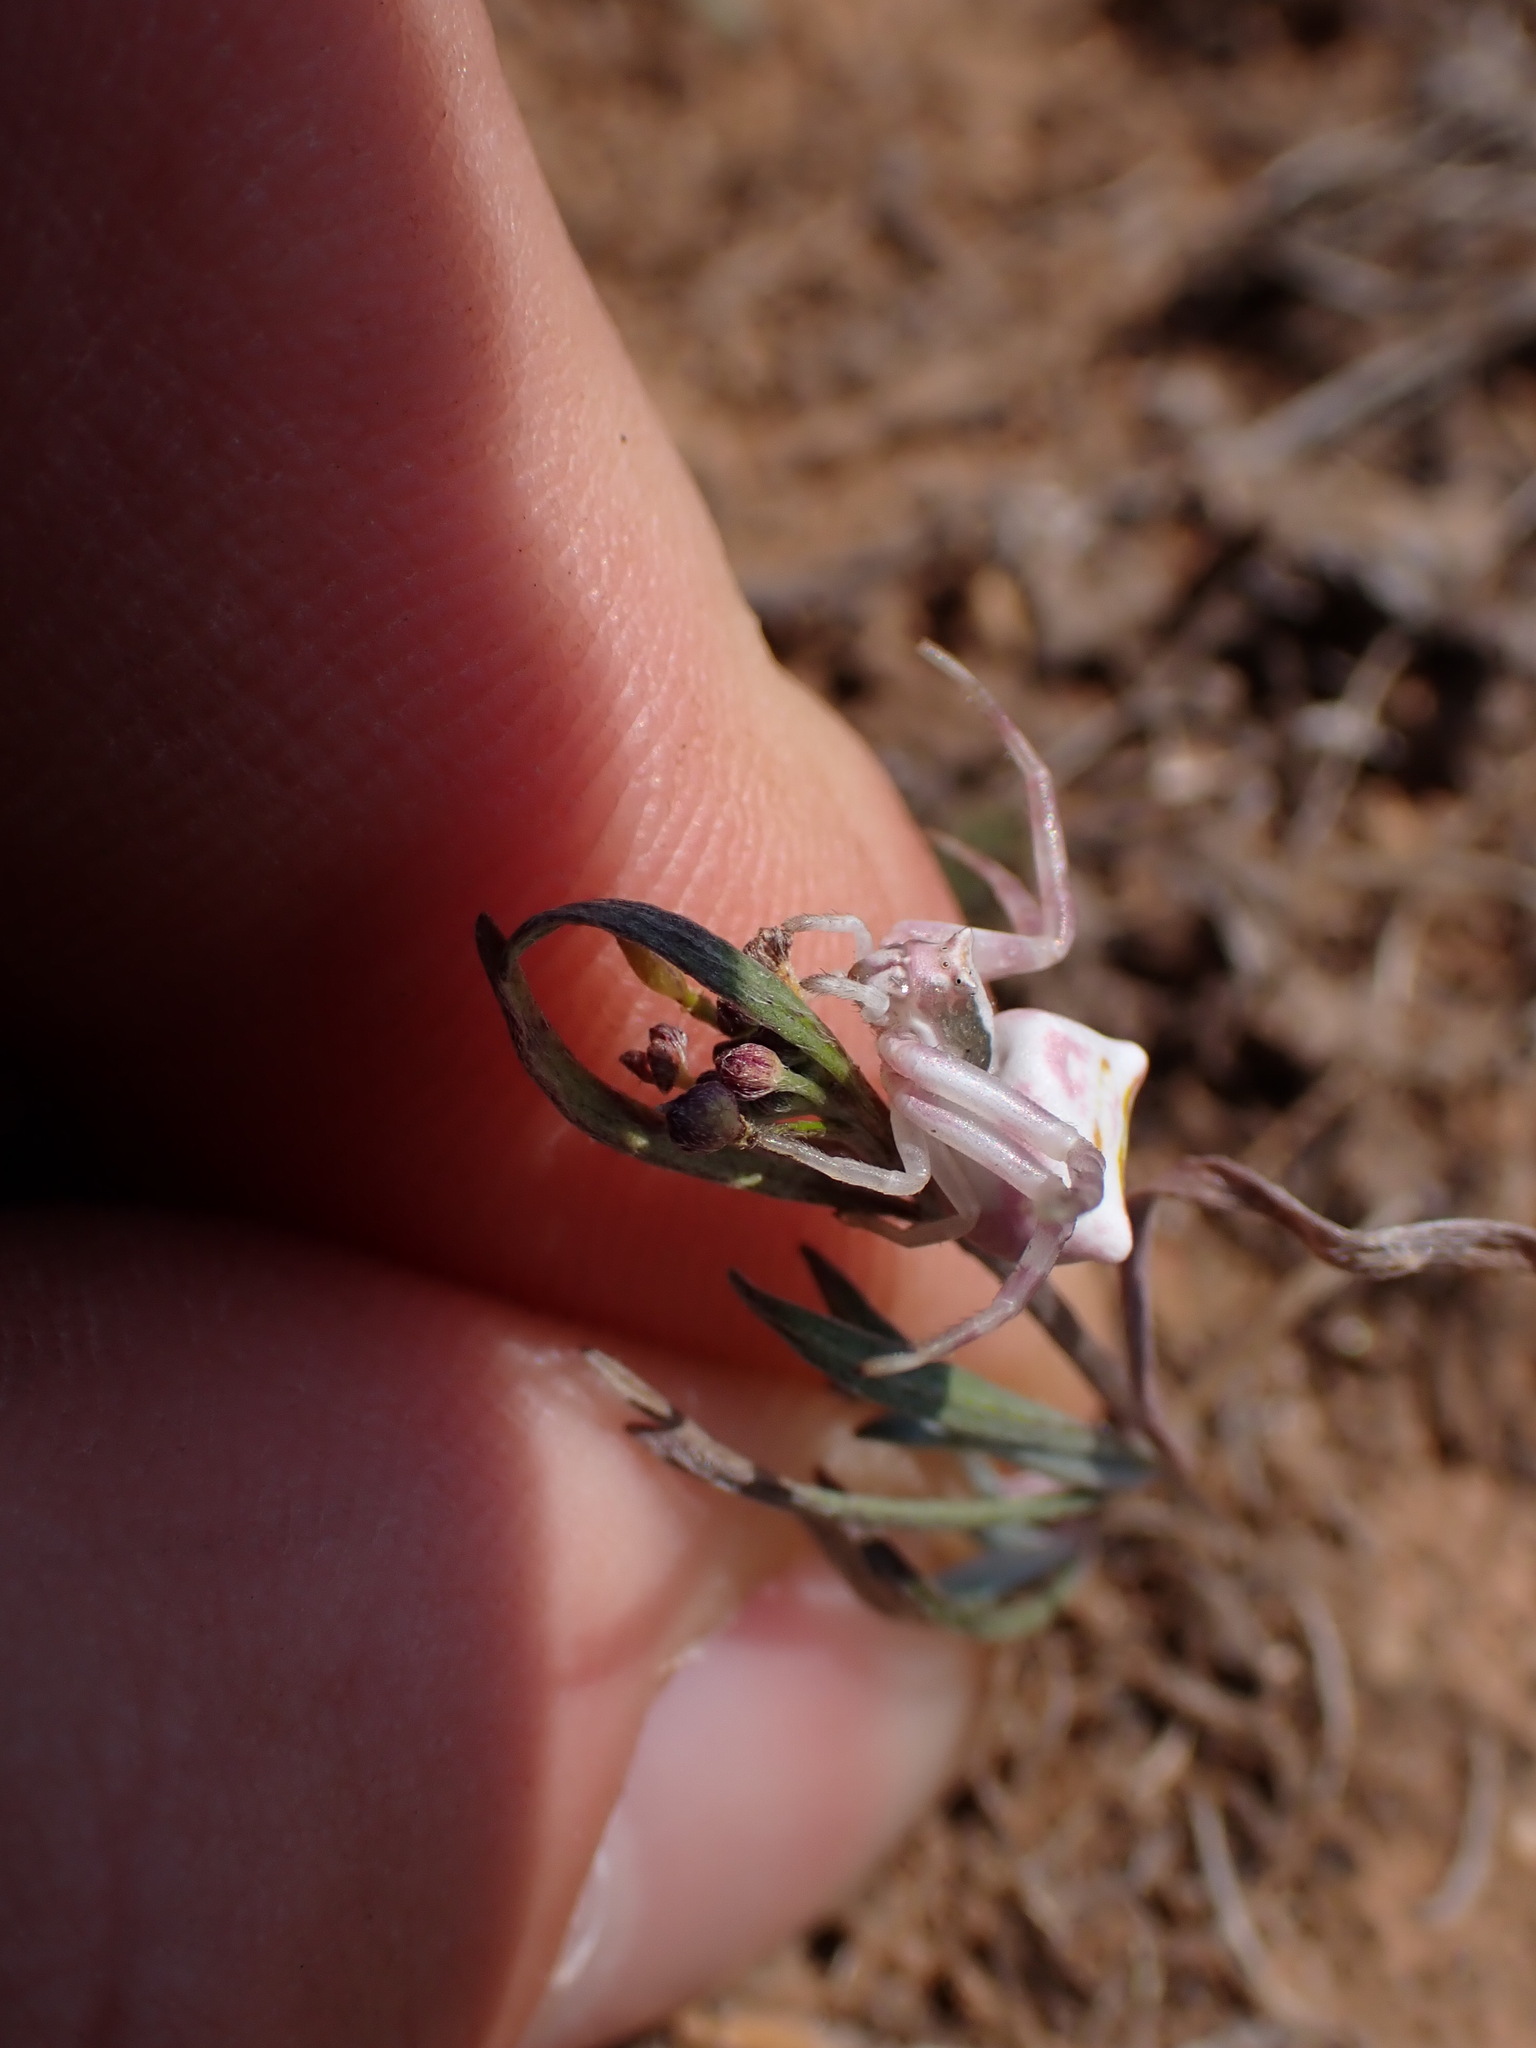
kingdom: Animalia
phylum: Arthropoda
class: Arachnida
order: Araneae
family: Thomisidae
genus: Thomisus
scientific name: Thomisus onustus
